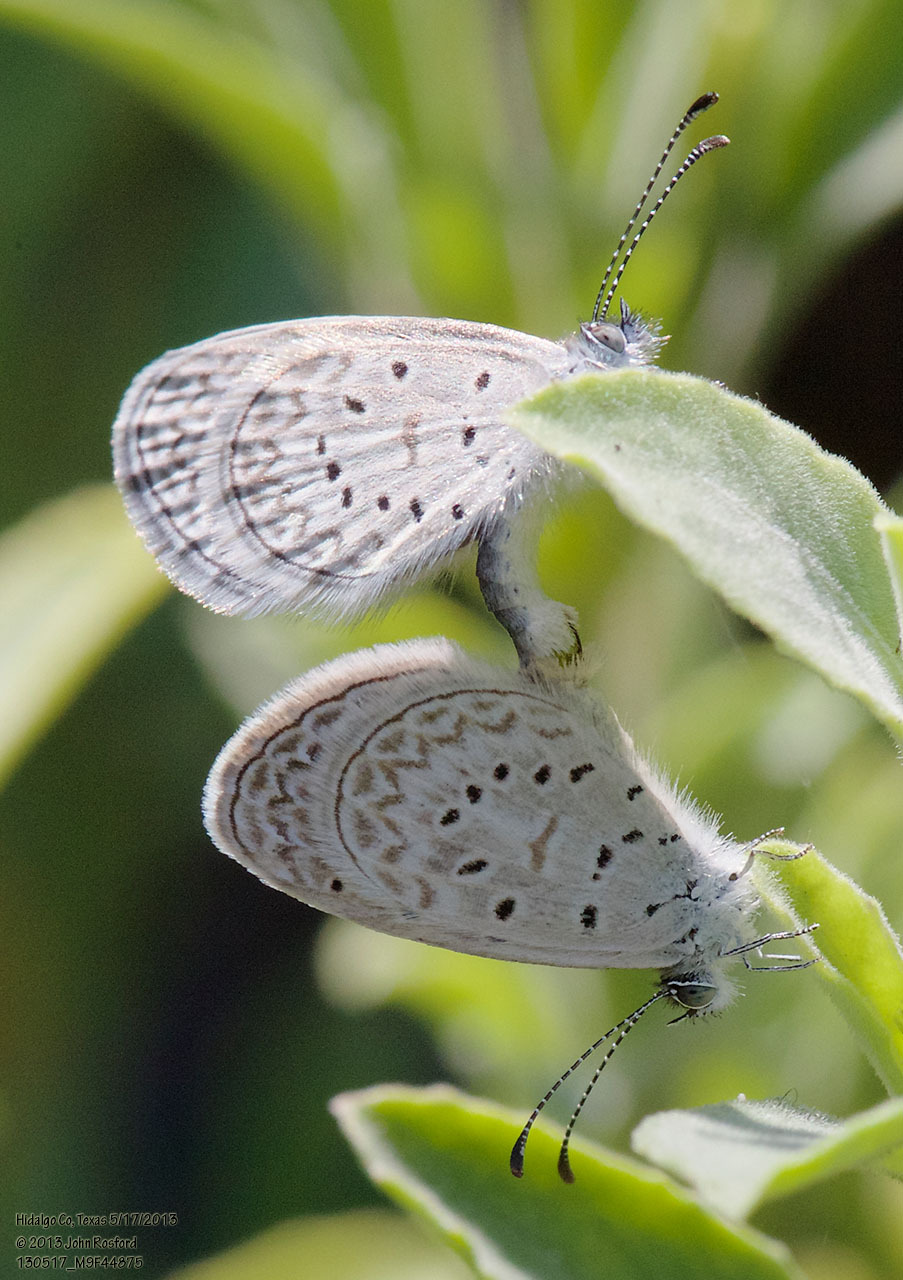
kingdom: Animalia
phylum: Arthropoda
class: Insecta
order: Lepidoptera
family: Lycaenidae
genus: Lycaena
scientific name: Lycaena cyna
